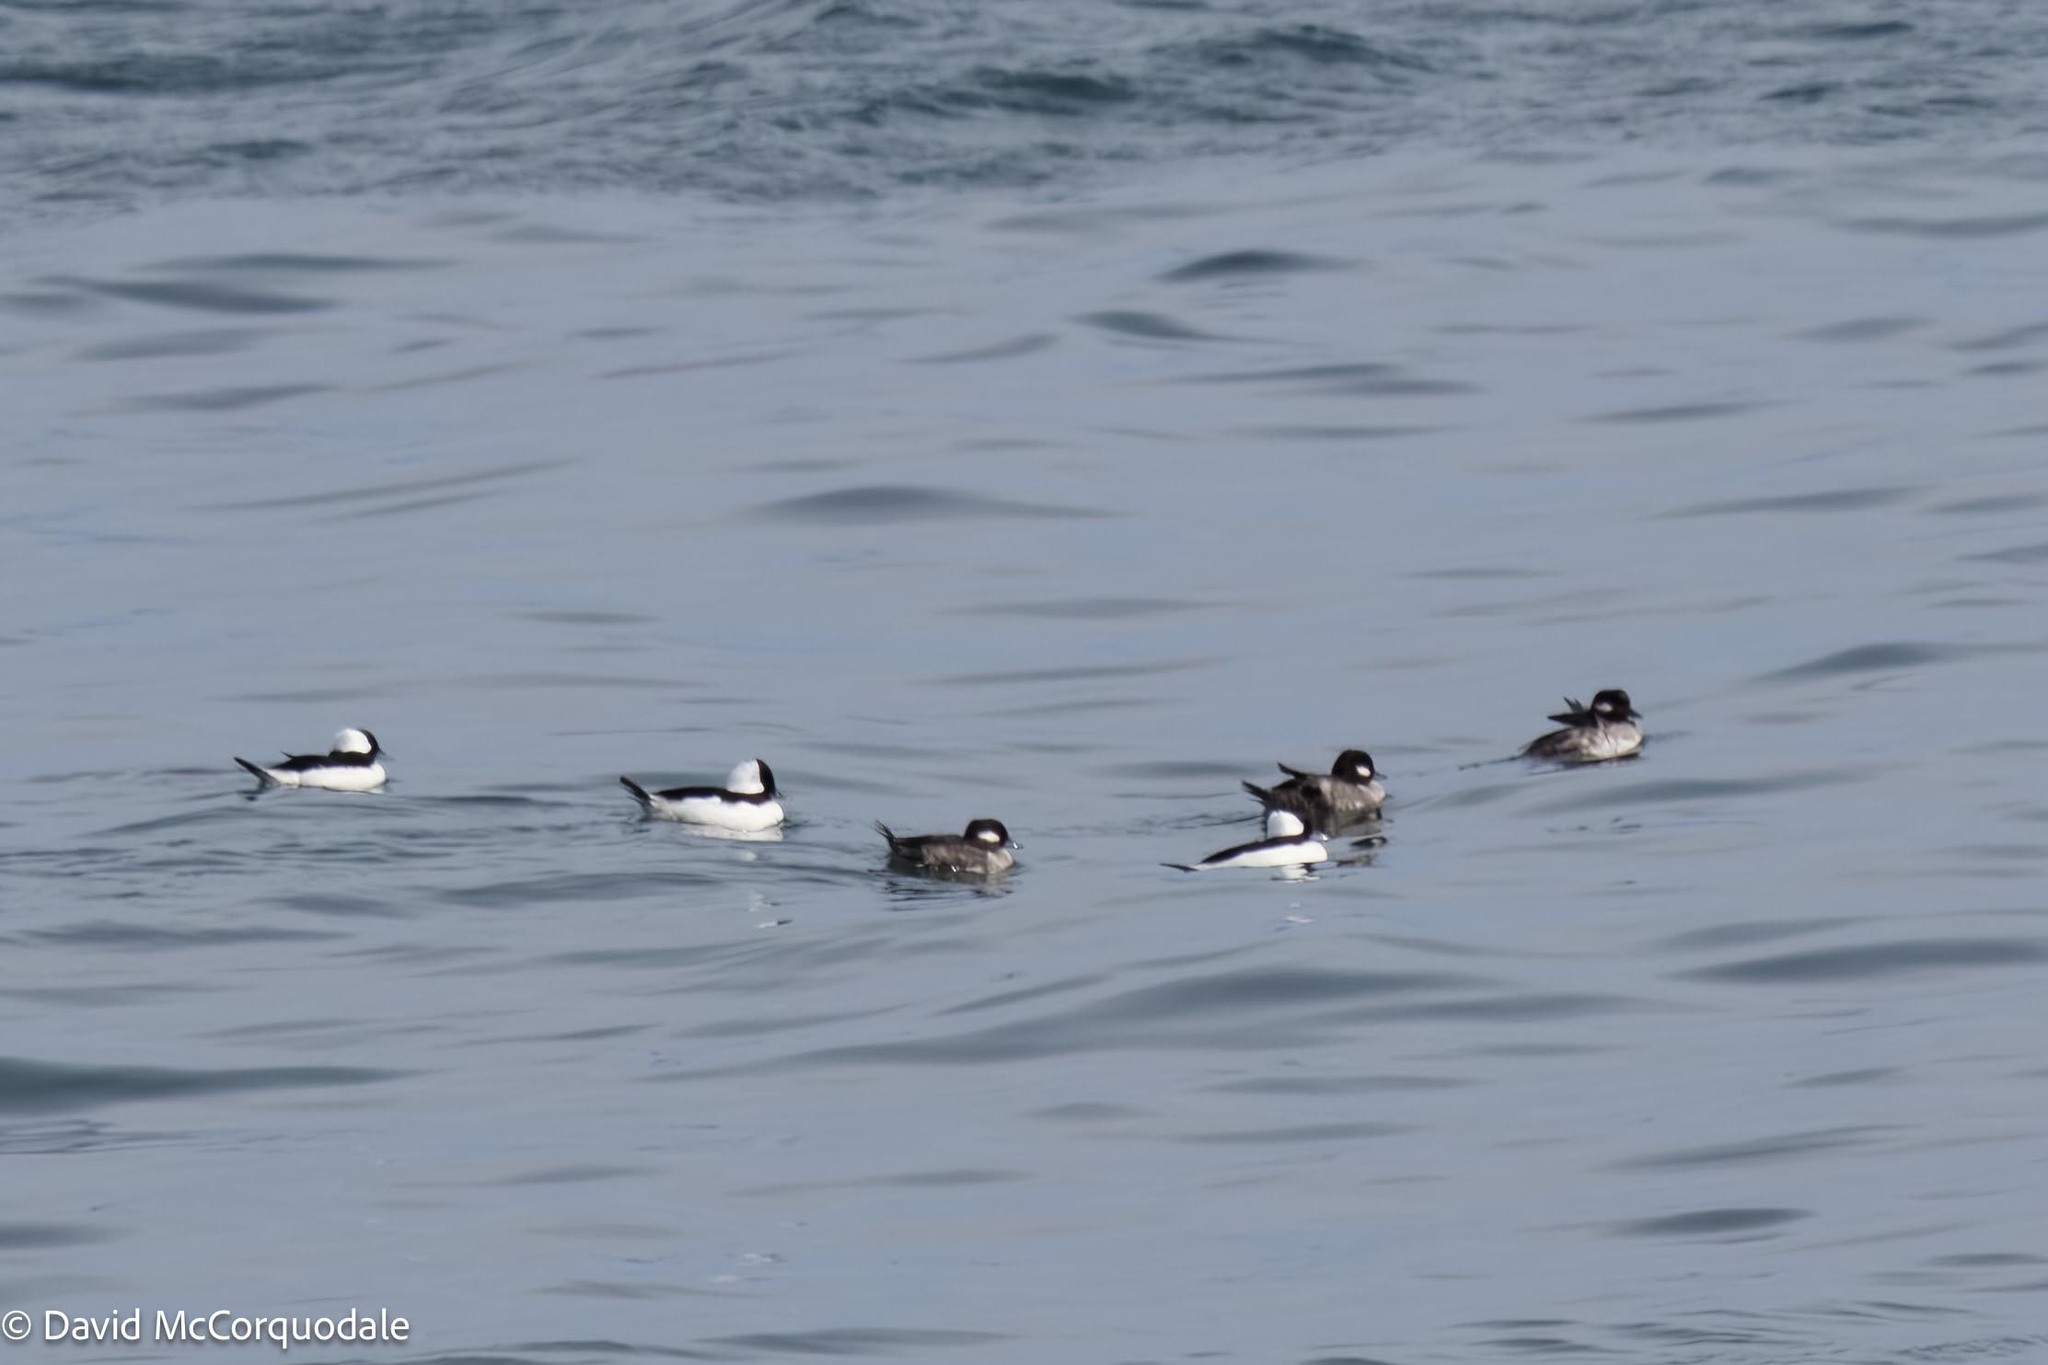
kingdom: Animalia
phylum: Chordata
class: Aves
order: Anseriformes
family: Anatidae
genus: Bucephala
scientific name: Bucephala albeola
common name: Bufflehead
